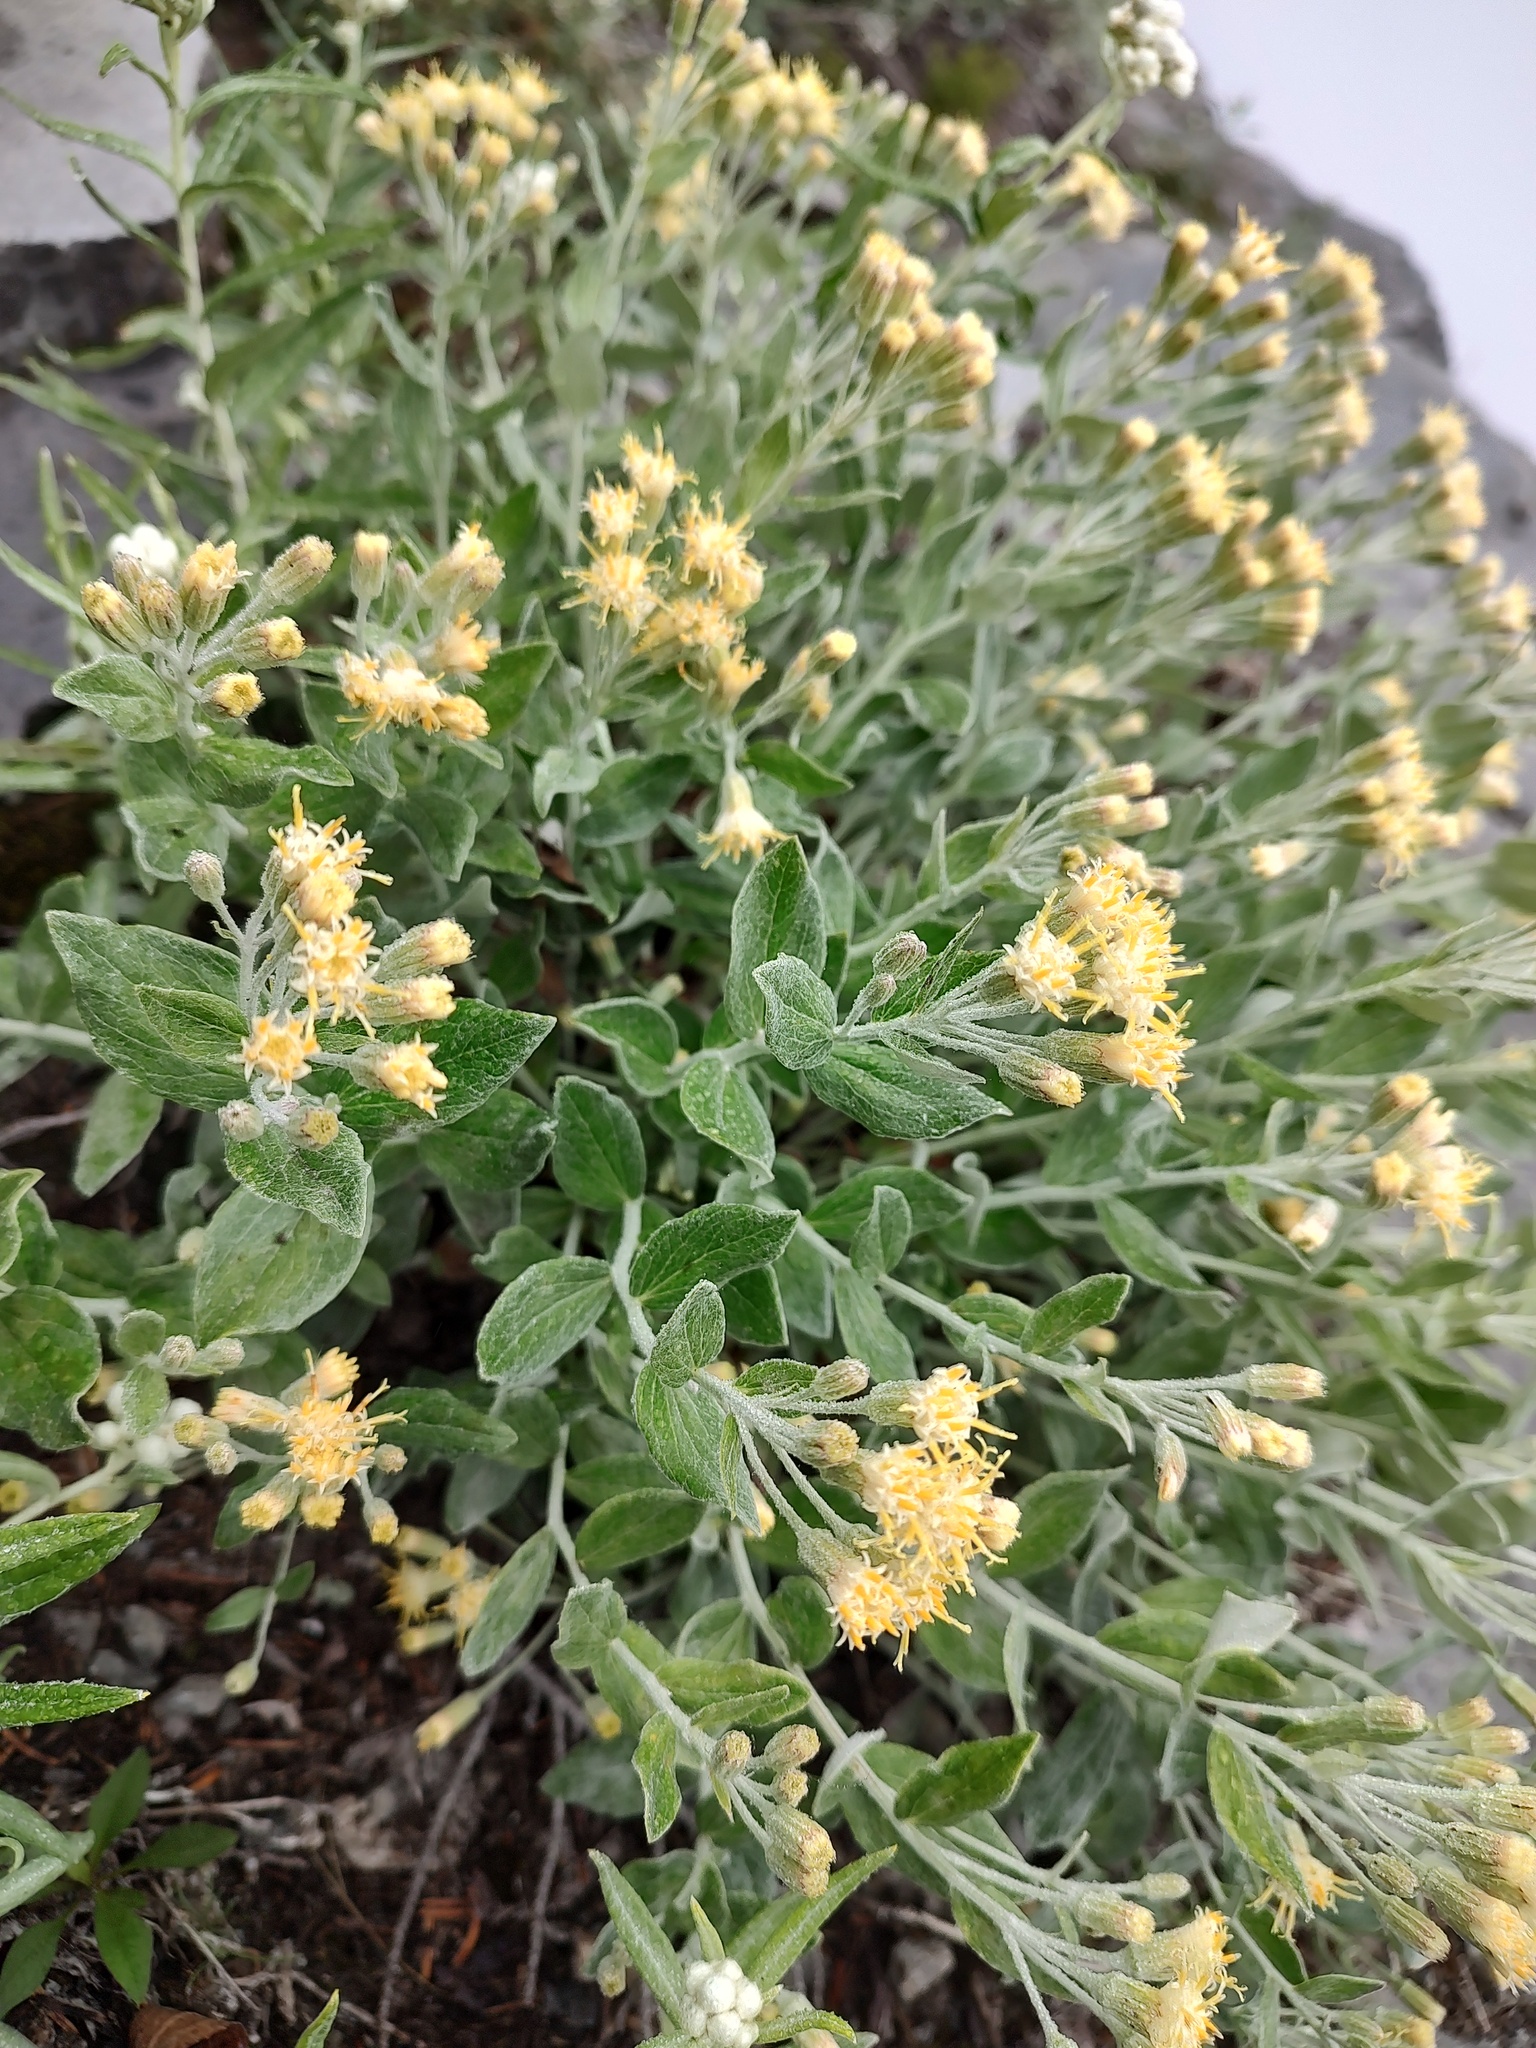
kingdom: Plantae
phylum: Tracheophyta
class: Magnoliopsida
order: Asterales
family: Asteraceae
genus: Luina
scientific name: Luina hypoleuca
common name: Little-leaved luina
